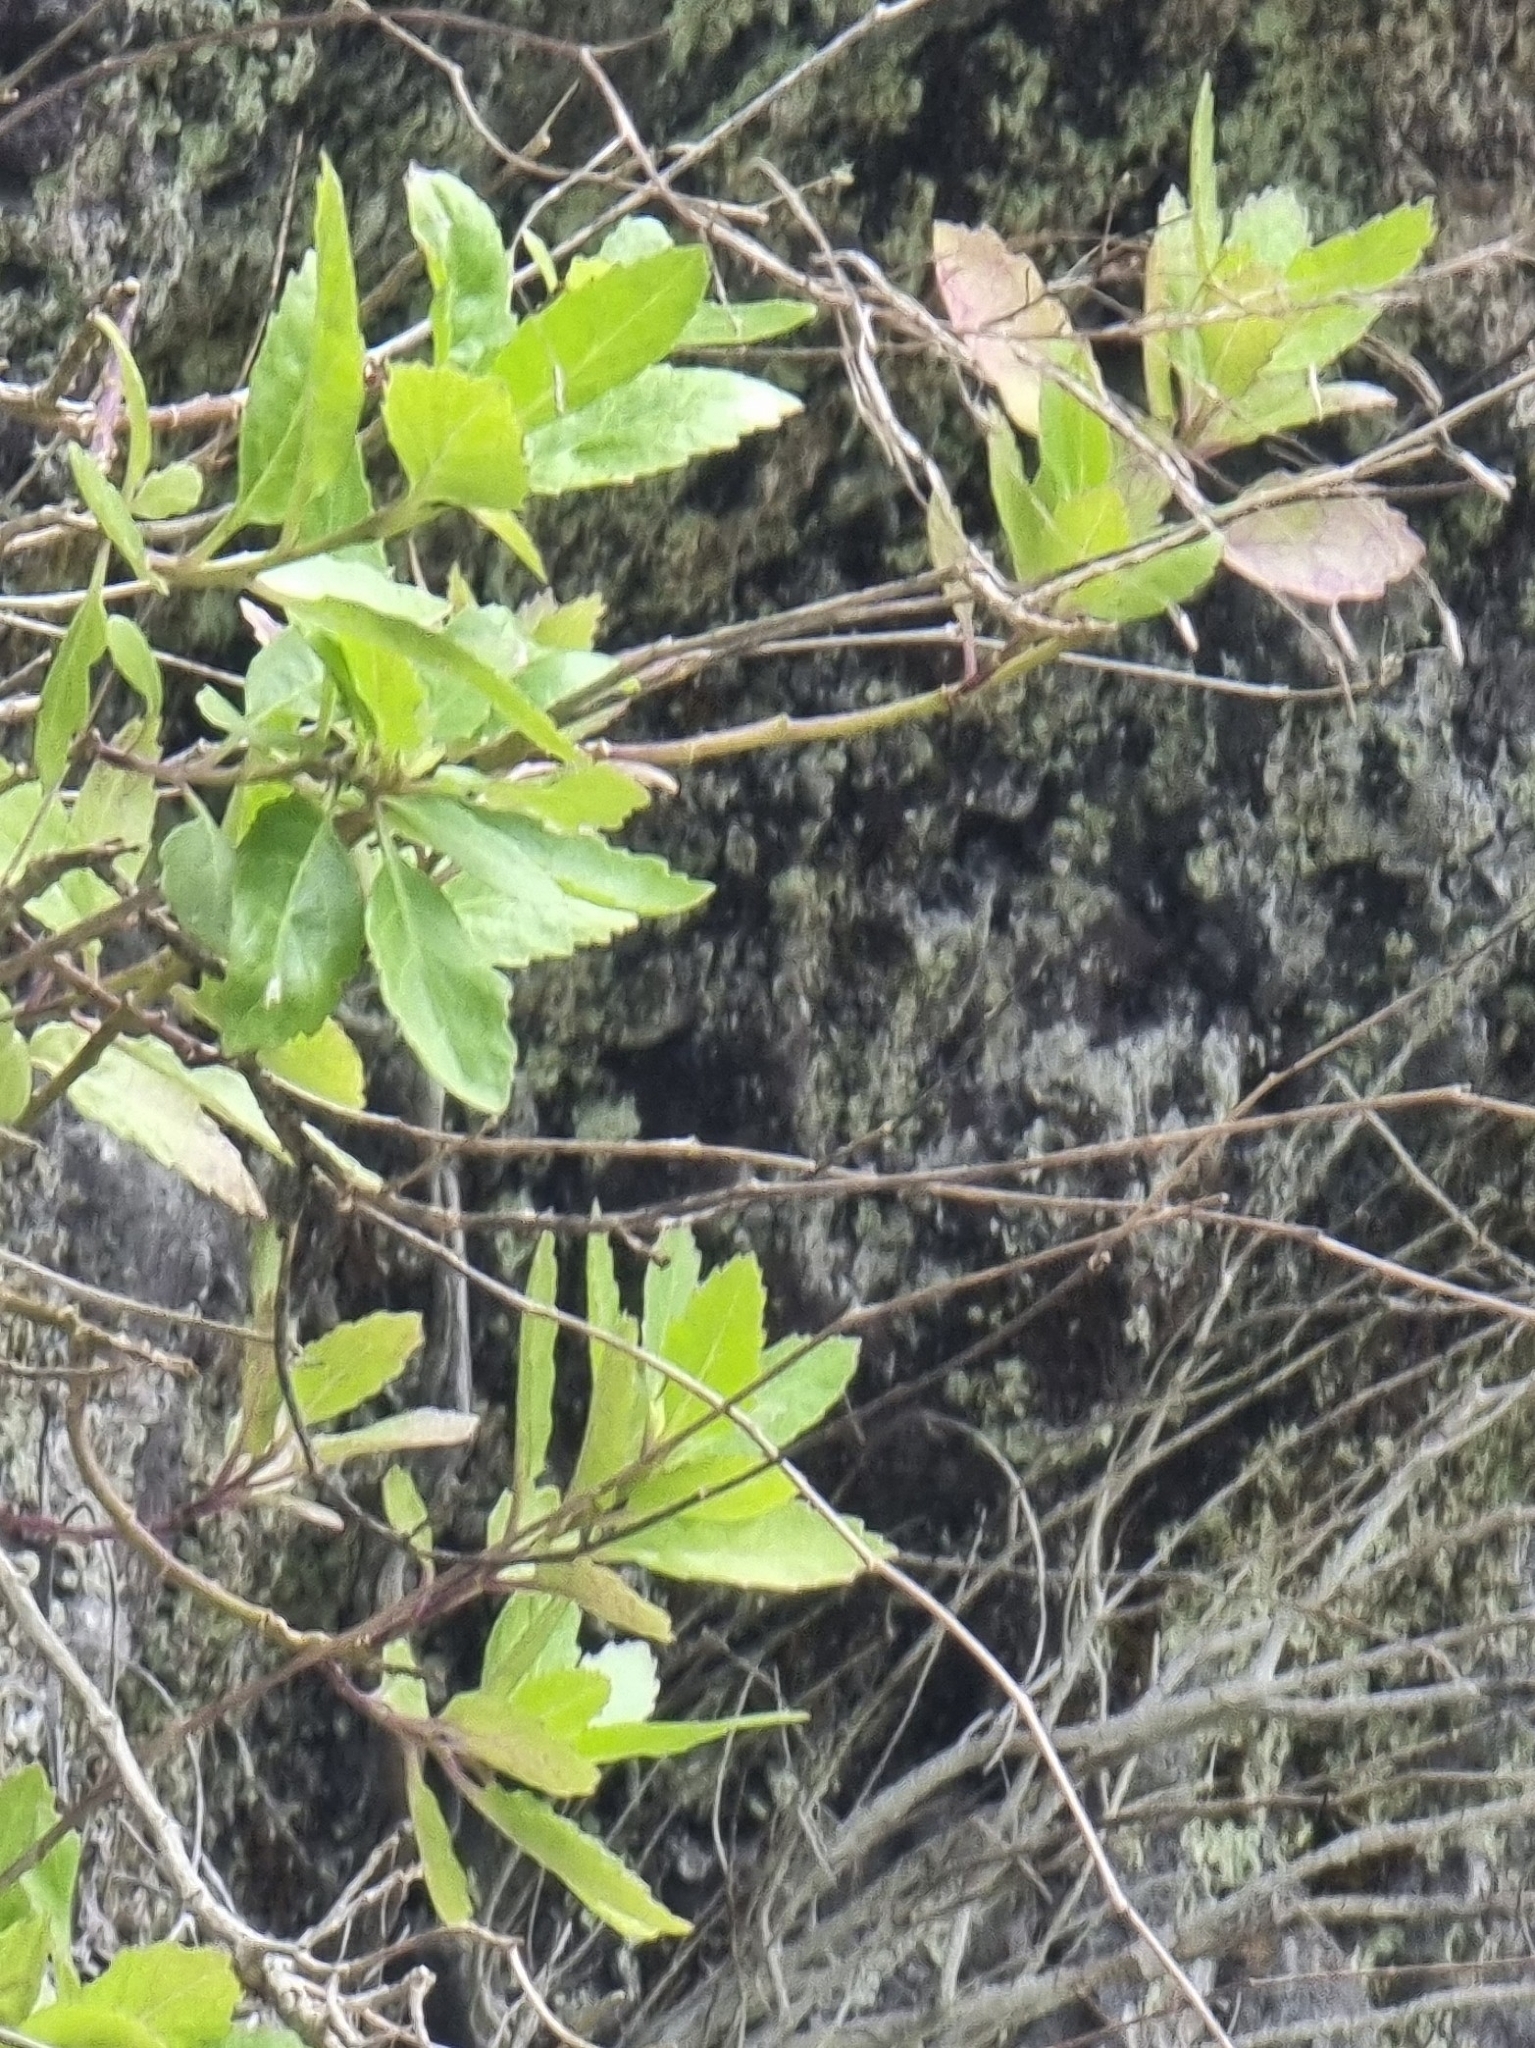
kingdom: Plantae
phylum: Tracheophyta
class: Magnoliopsida
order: Brassicales
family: Brassicaceae
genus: Sinapidendron
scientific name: Sinapidendron frutescens
